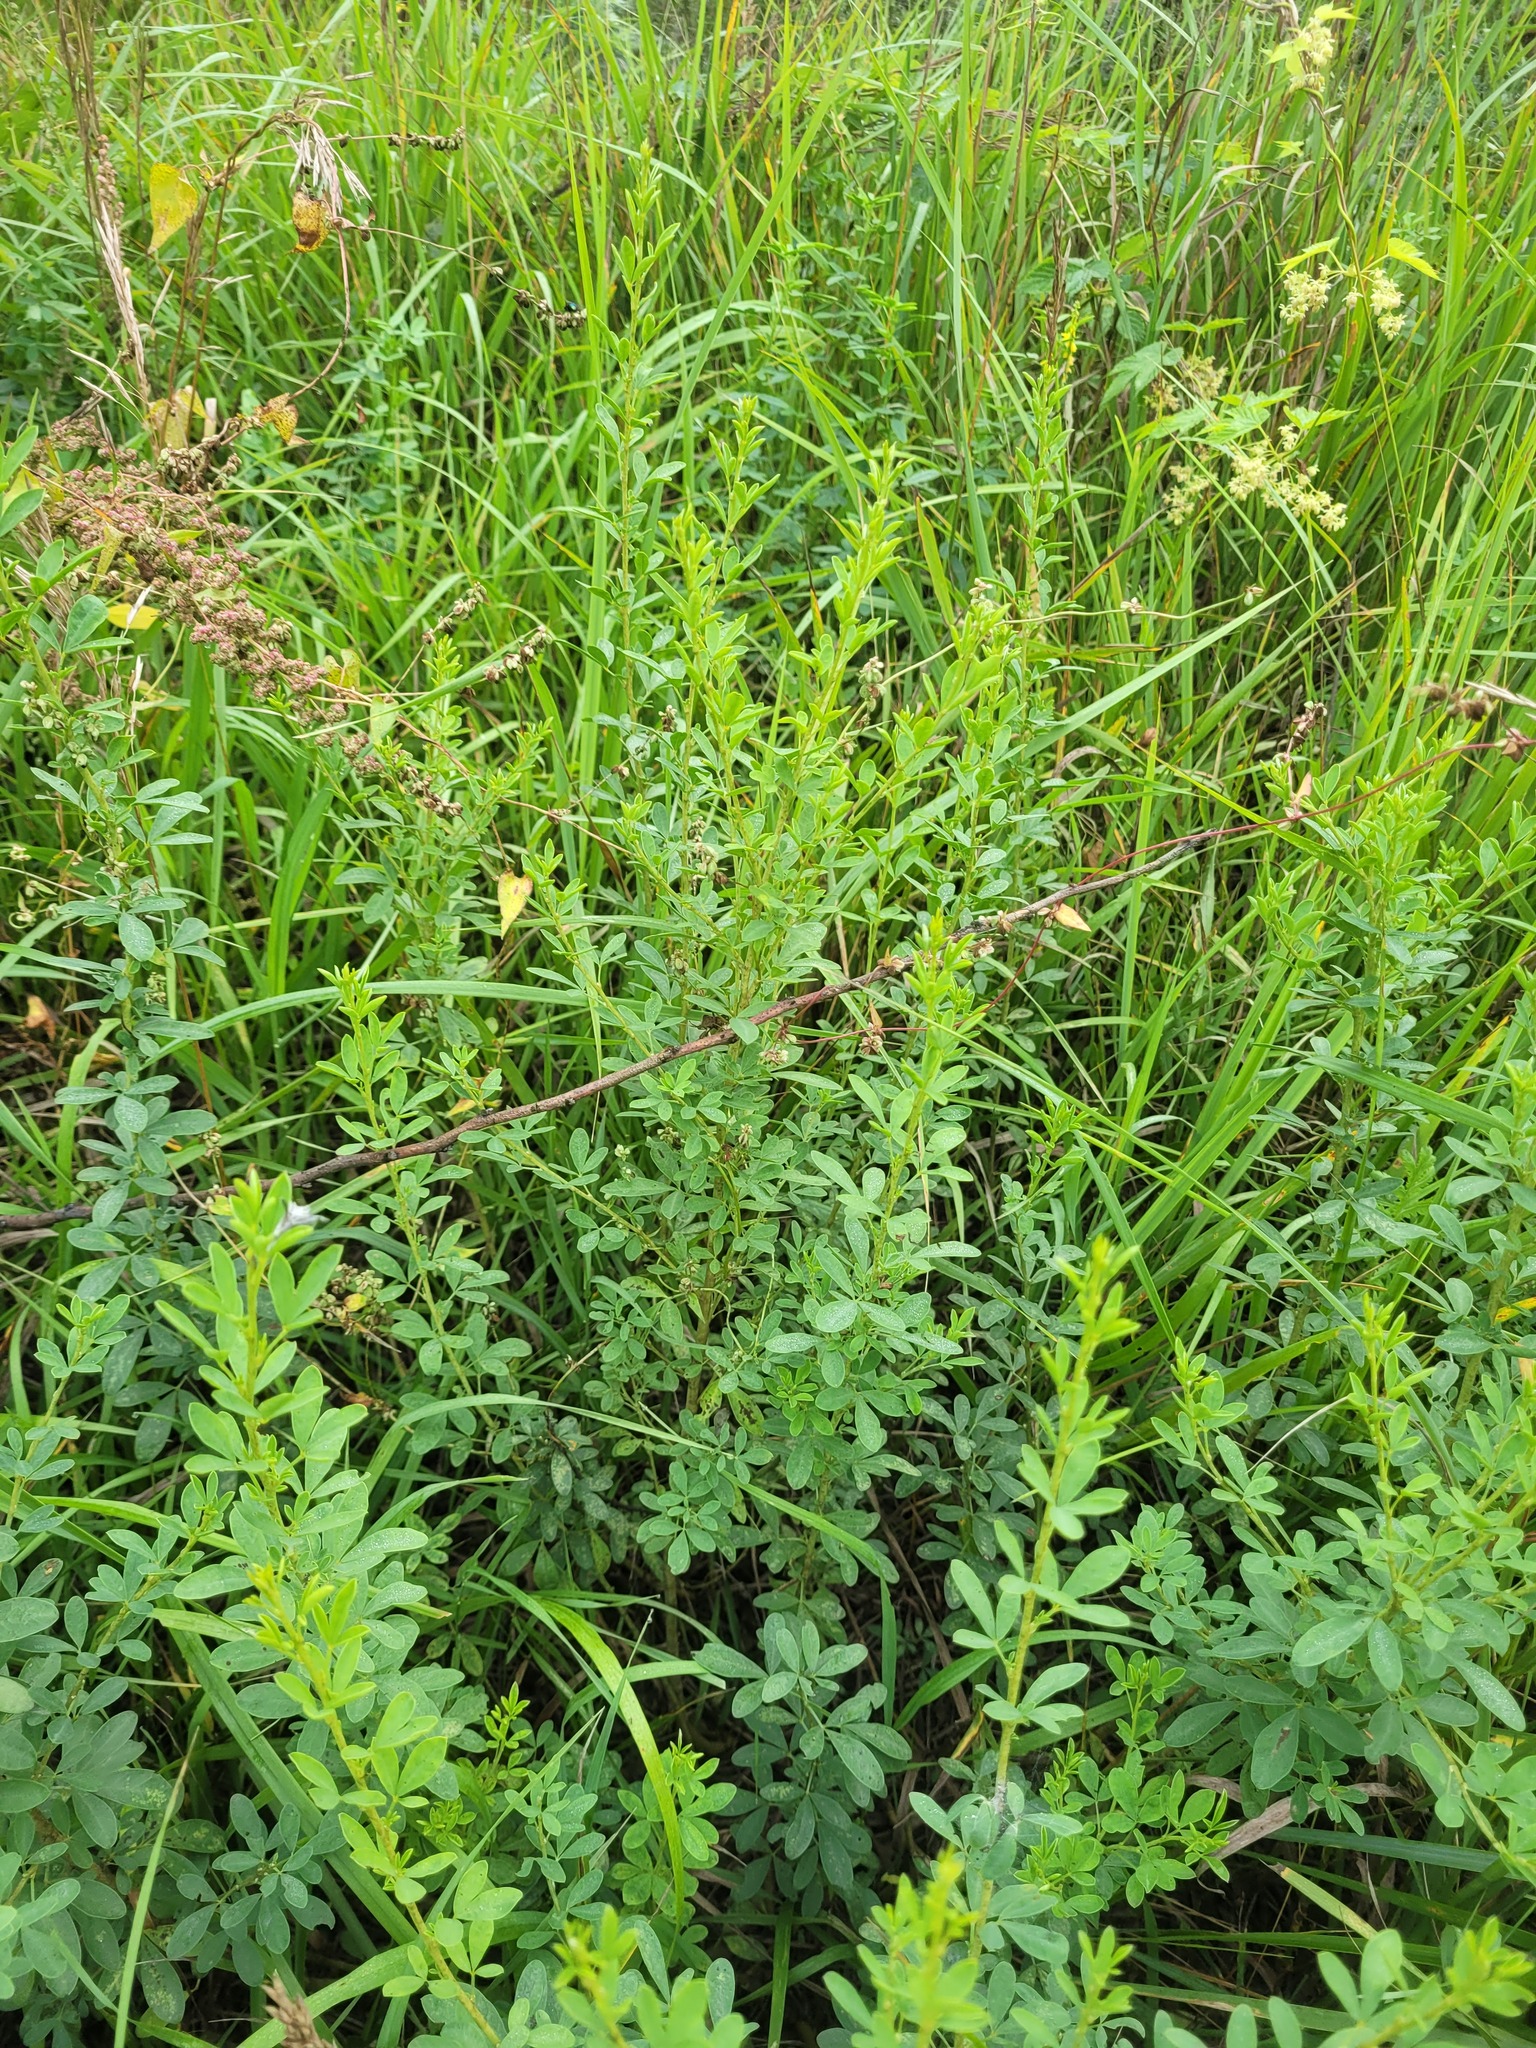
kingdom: Plantae
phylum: Tracheophyta
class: Magnoliopsida
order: Fabales
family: Fabaceae
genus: Chamaecytisus
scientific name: Chamaecytisus ruthenicus
